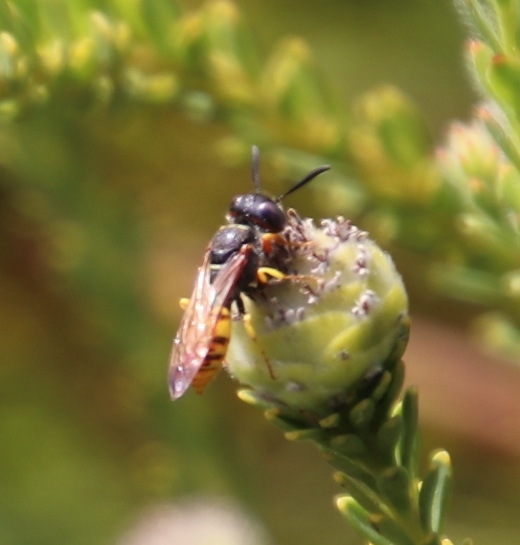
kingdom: Animalia
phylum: Arthropoda
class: Insecta
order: Hymenoptera
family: Crabronidae
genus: Philanthus
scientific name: Philanthus triangulum
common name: Bee wolf
